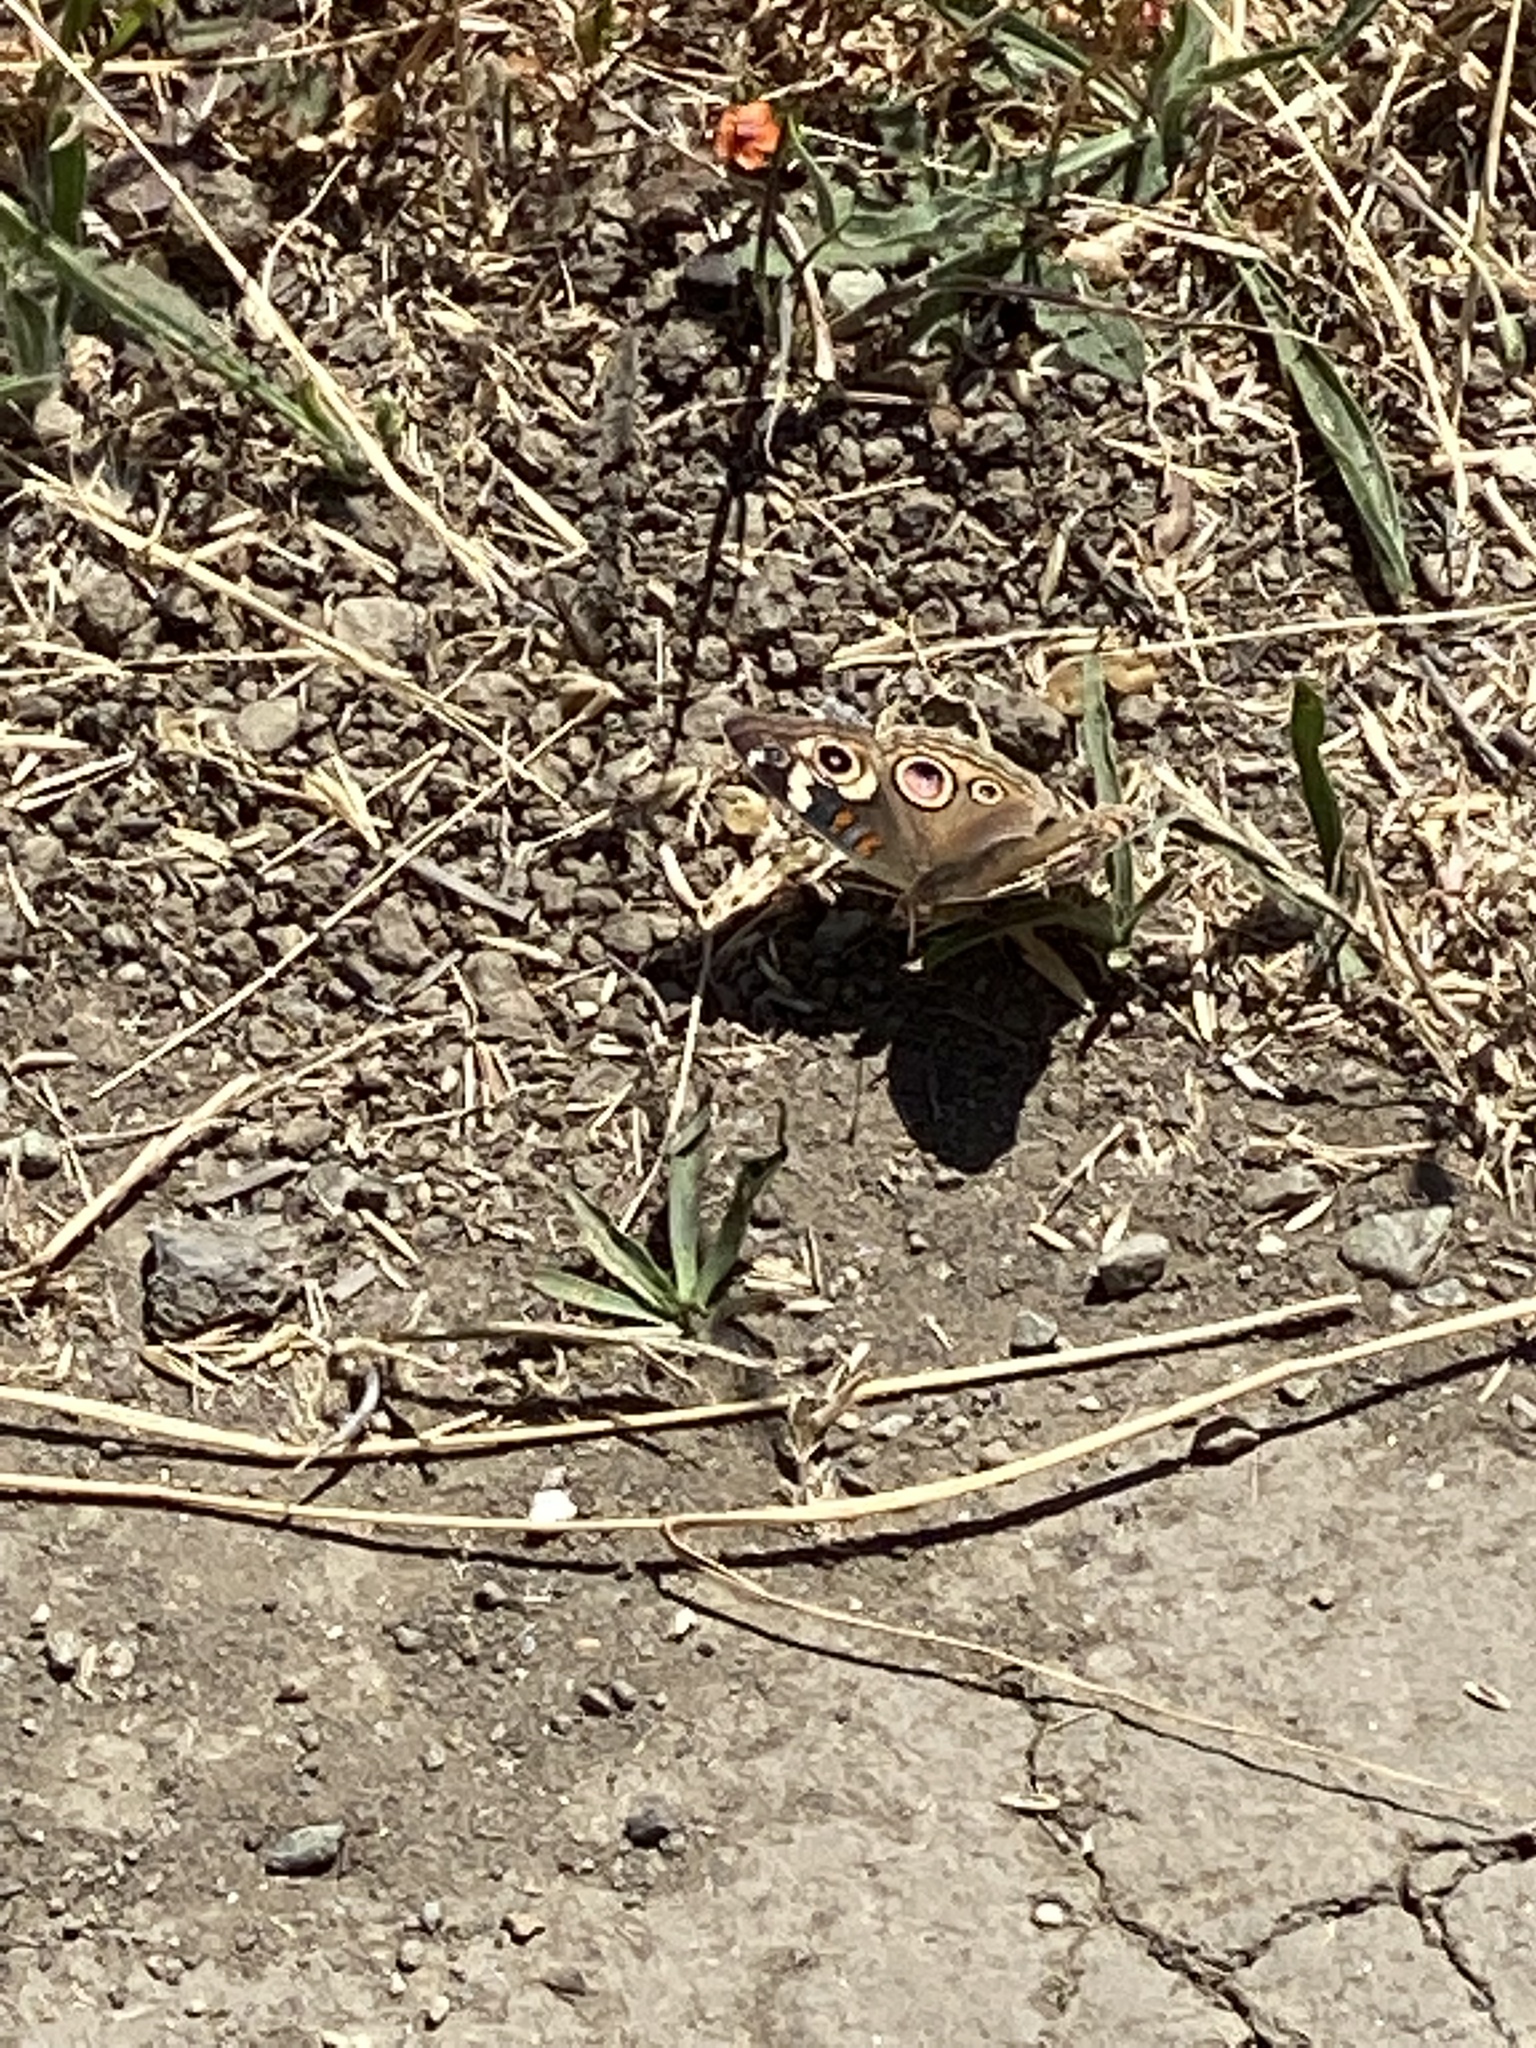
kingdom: Animalia
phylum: Arthropoda
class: Insecta
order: Lepidoptera
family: Nymphalidae
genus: Junonia
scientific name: Junonia grisea
